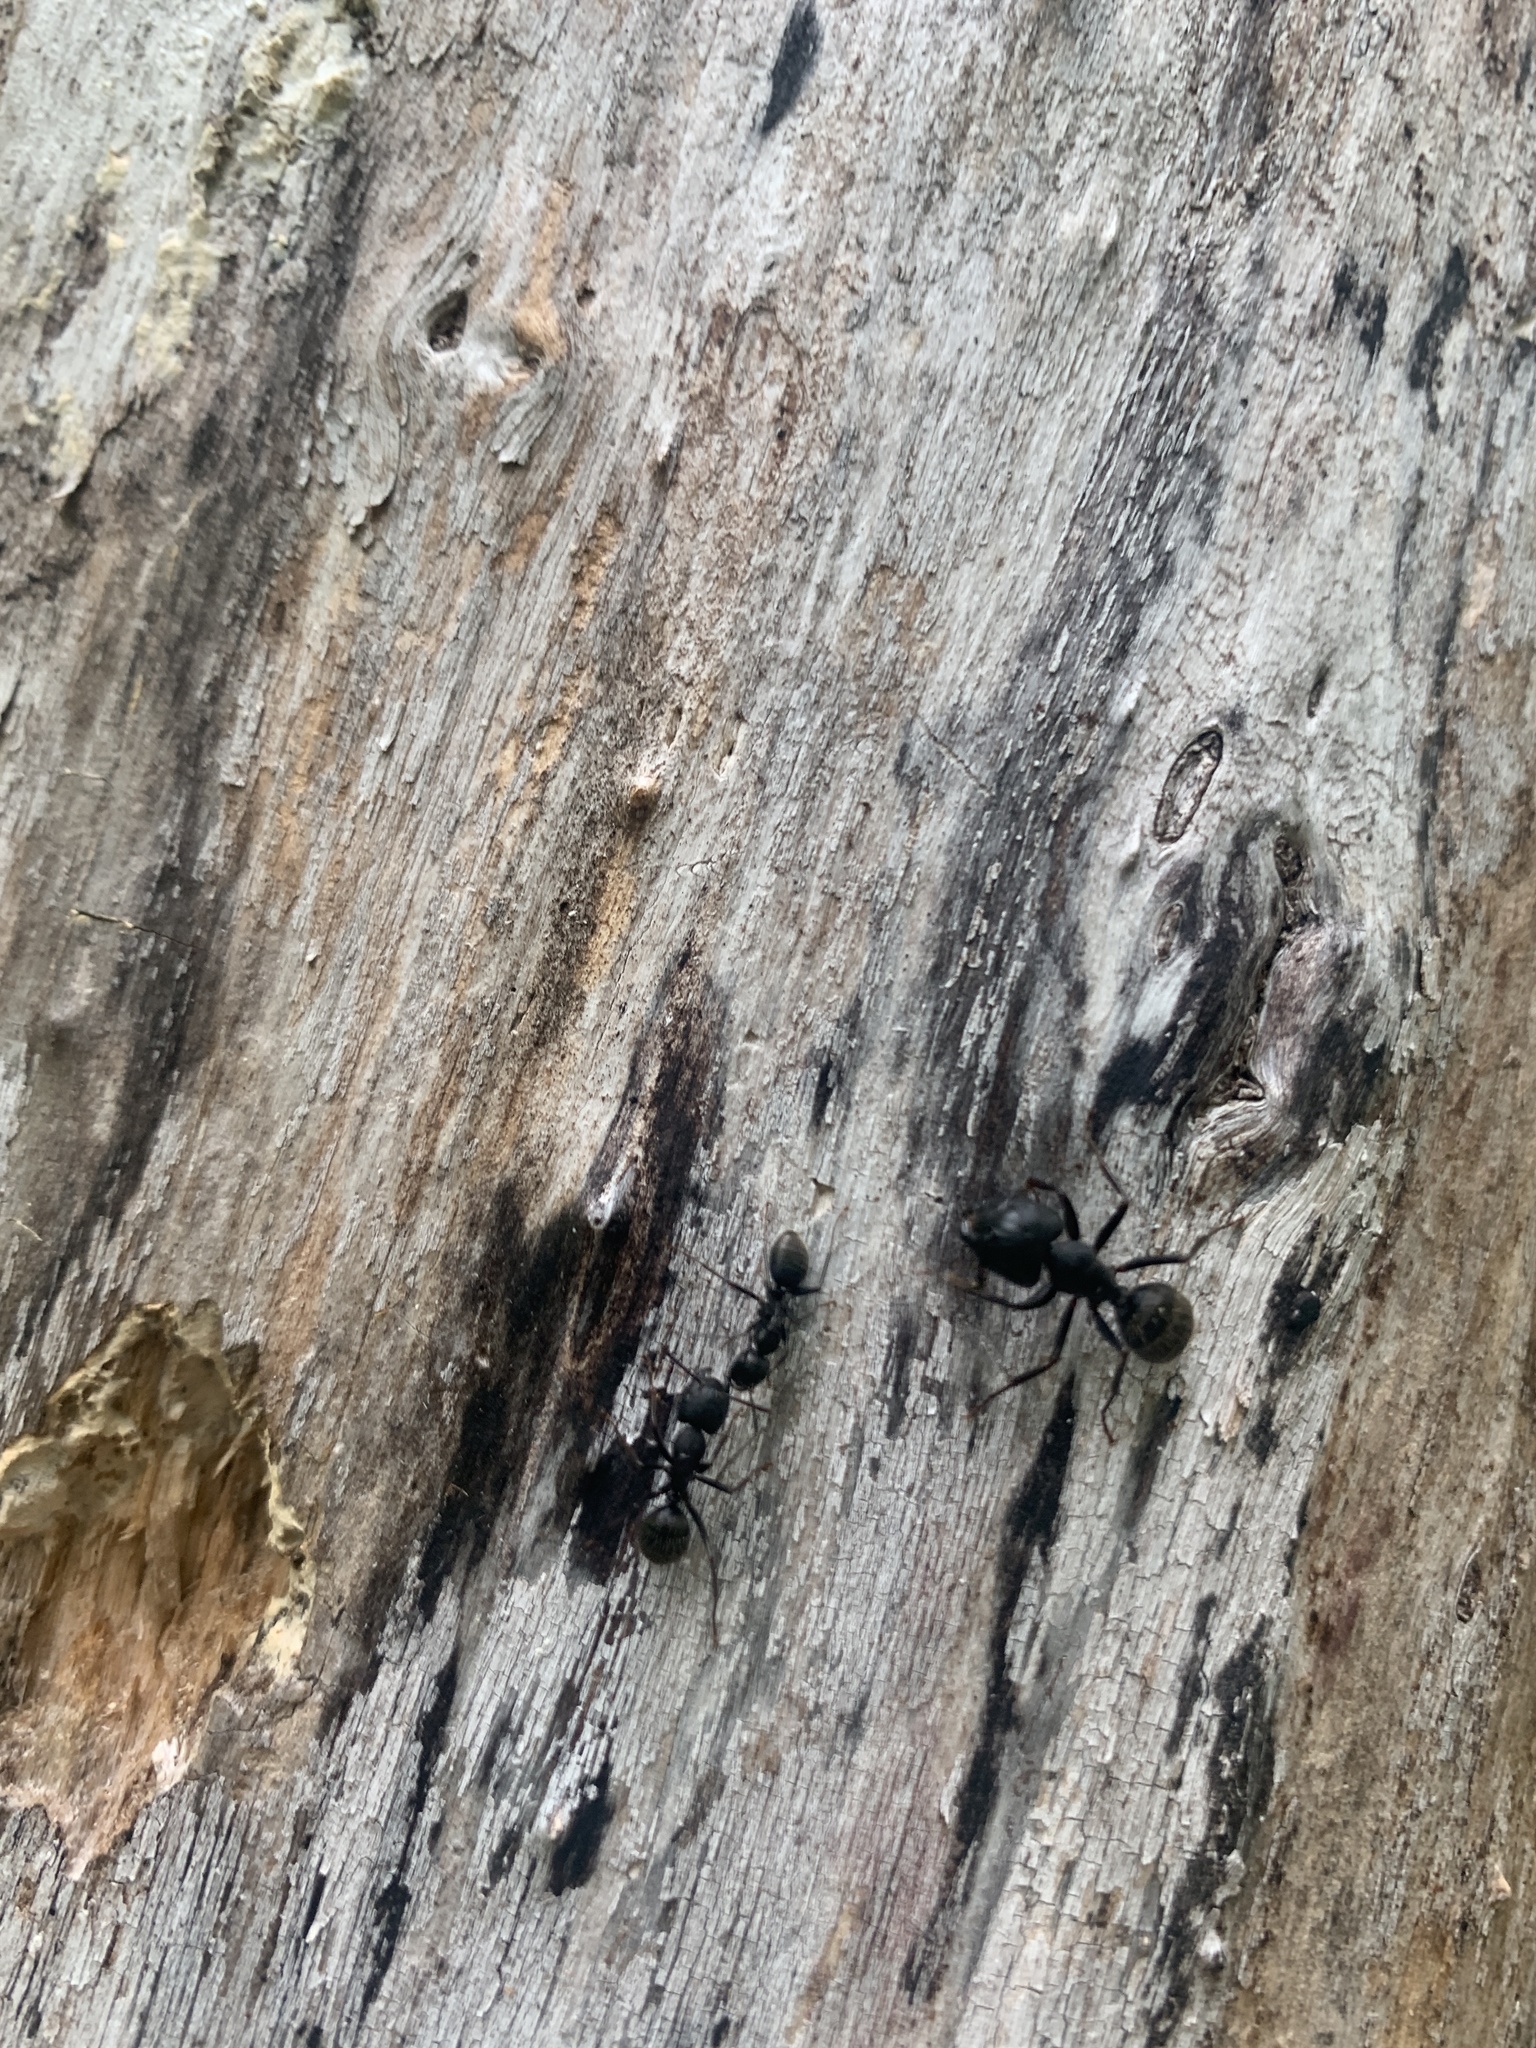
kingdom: Animalia
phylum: Arthropoda
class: Insecta
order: Hymenoptera
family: Formicidae
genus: Camponotus
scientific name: Camponotus pennsylvanicus
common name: Black carpenter ant
